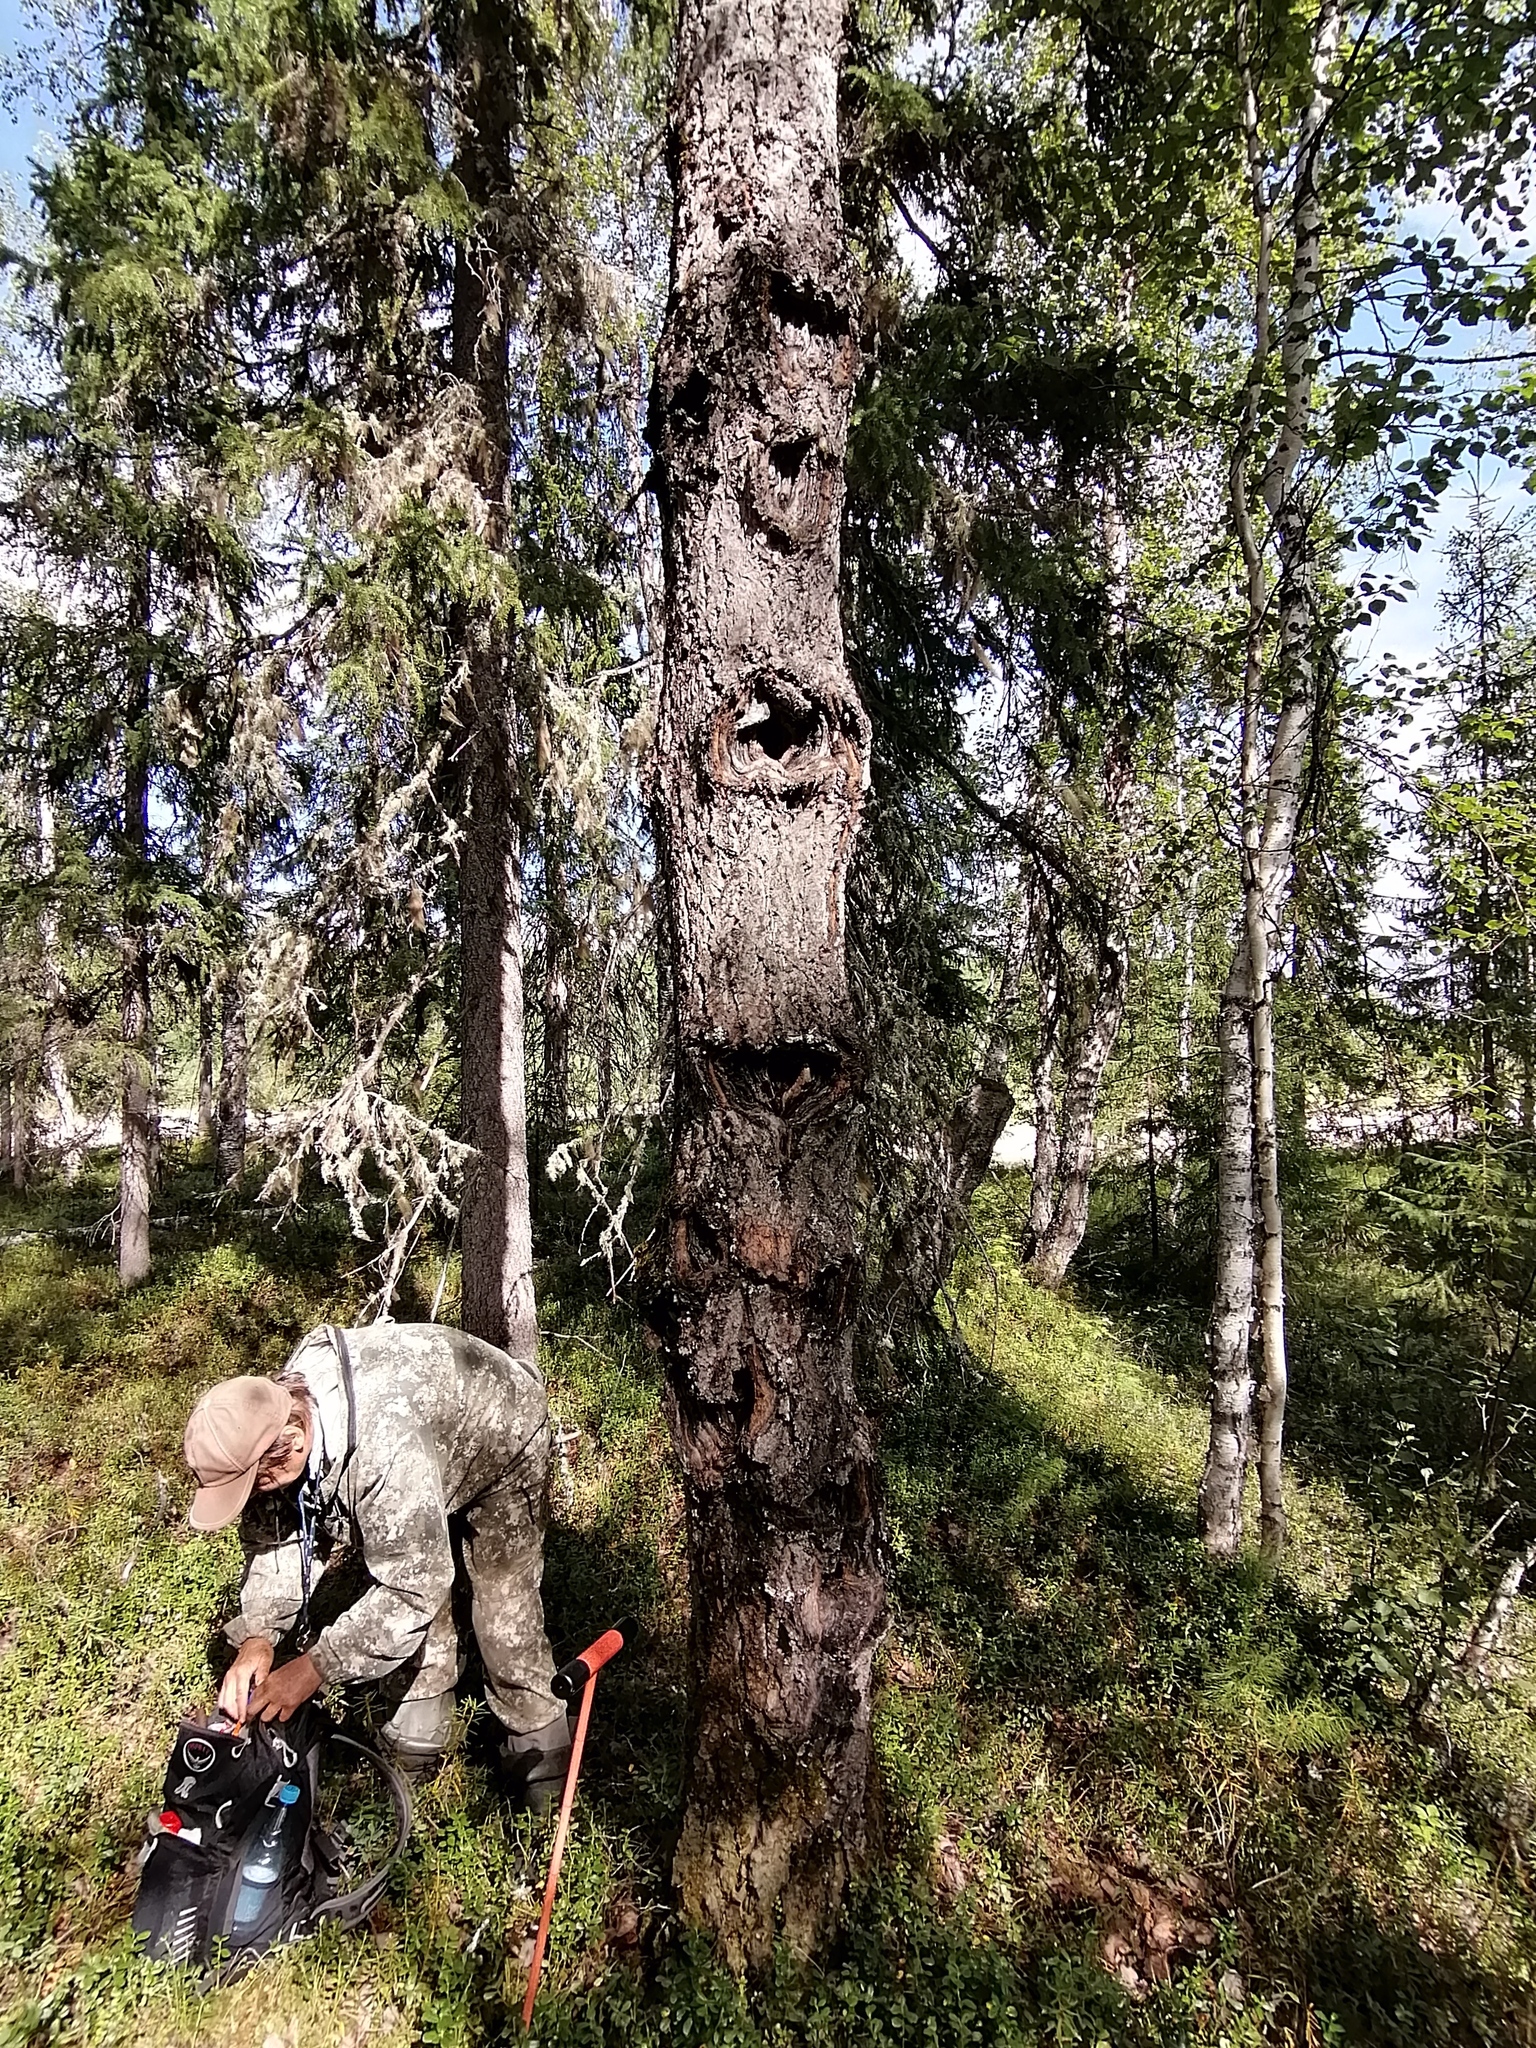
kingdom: Plantae
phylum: Tracheophyta
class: Magnoliopsida
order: Malpighiales
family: Salicaceae
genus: Populus
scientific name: Populus tremula
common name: European aspen
